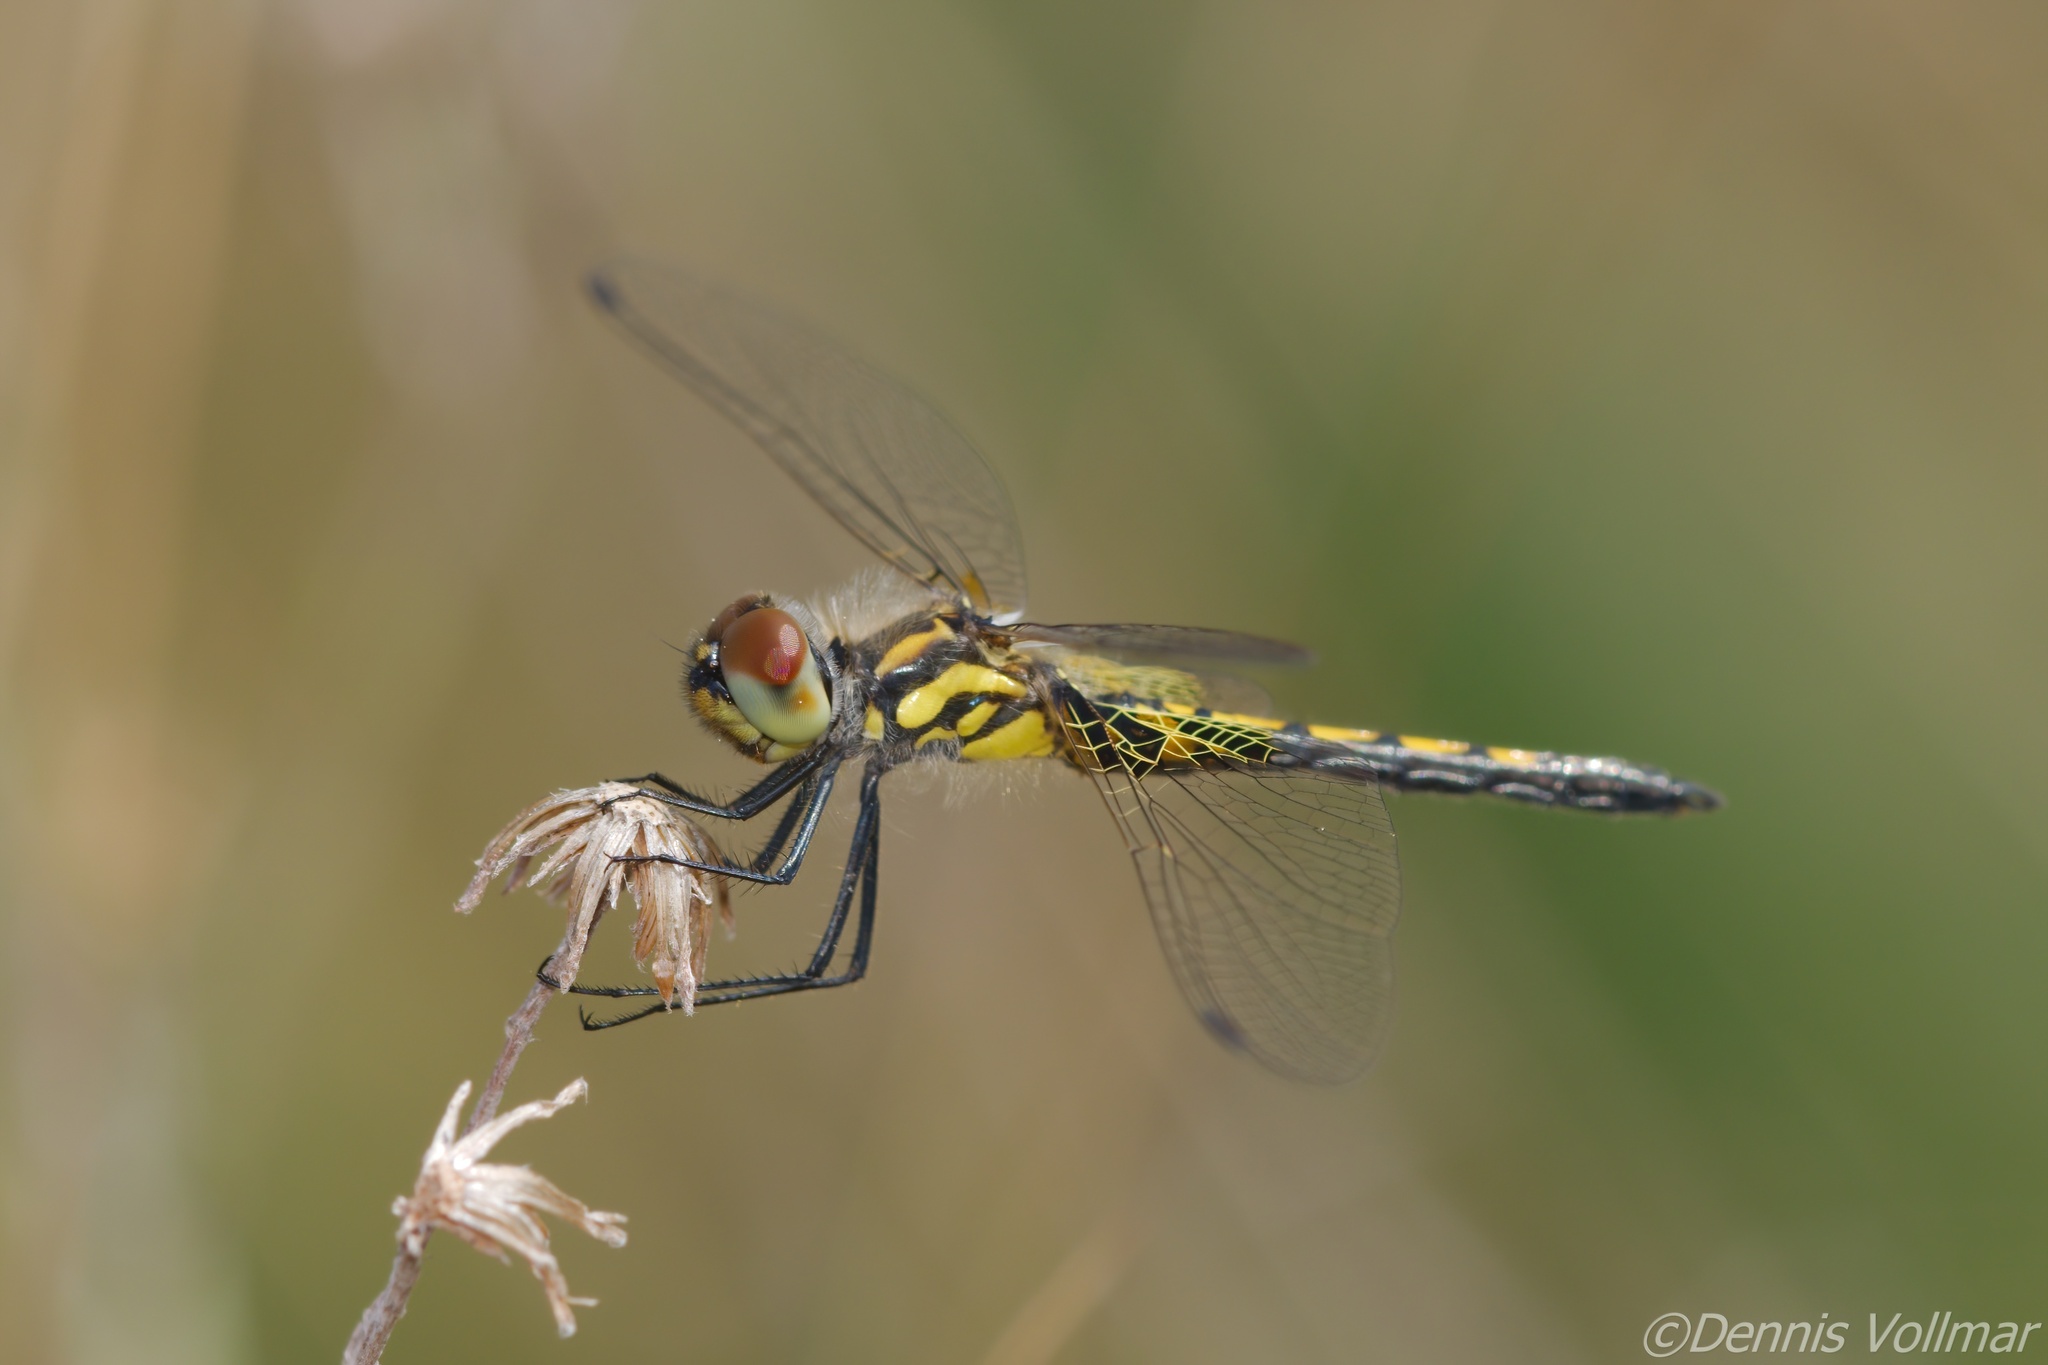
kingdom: Animalia
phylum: Arthropoda
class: Insecta
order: Odonata
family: Libellulidae
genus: Celithemis
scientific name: Celithemis ornata
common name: Ornate pennant
